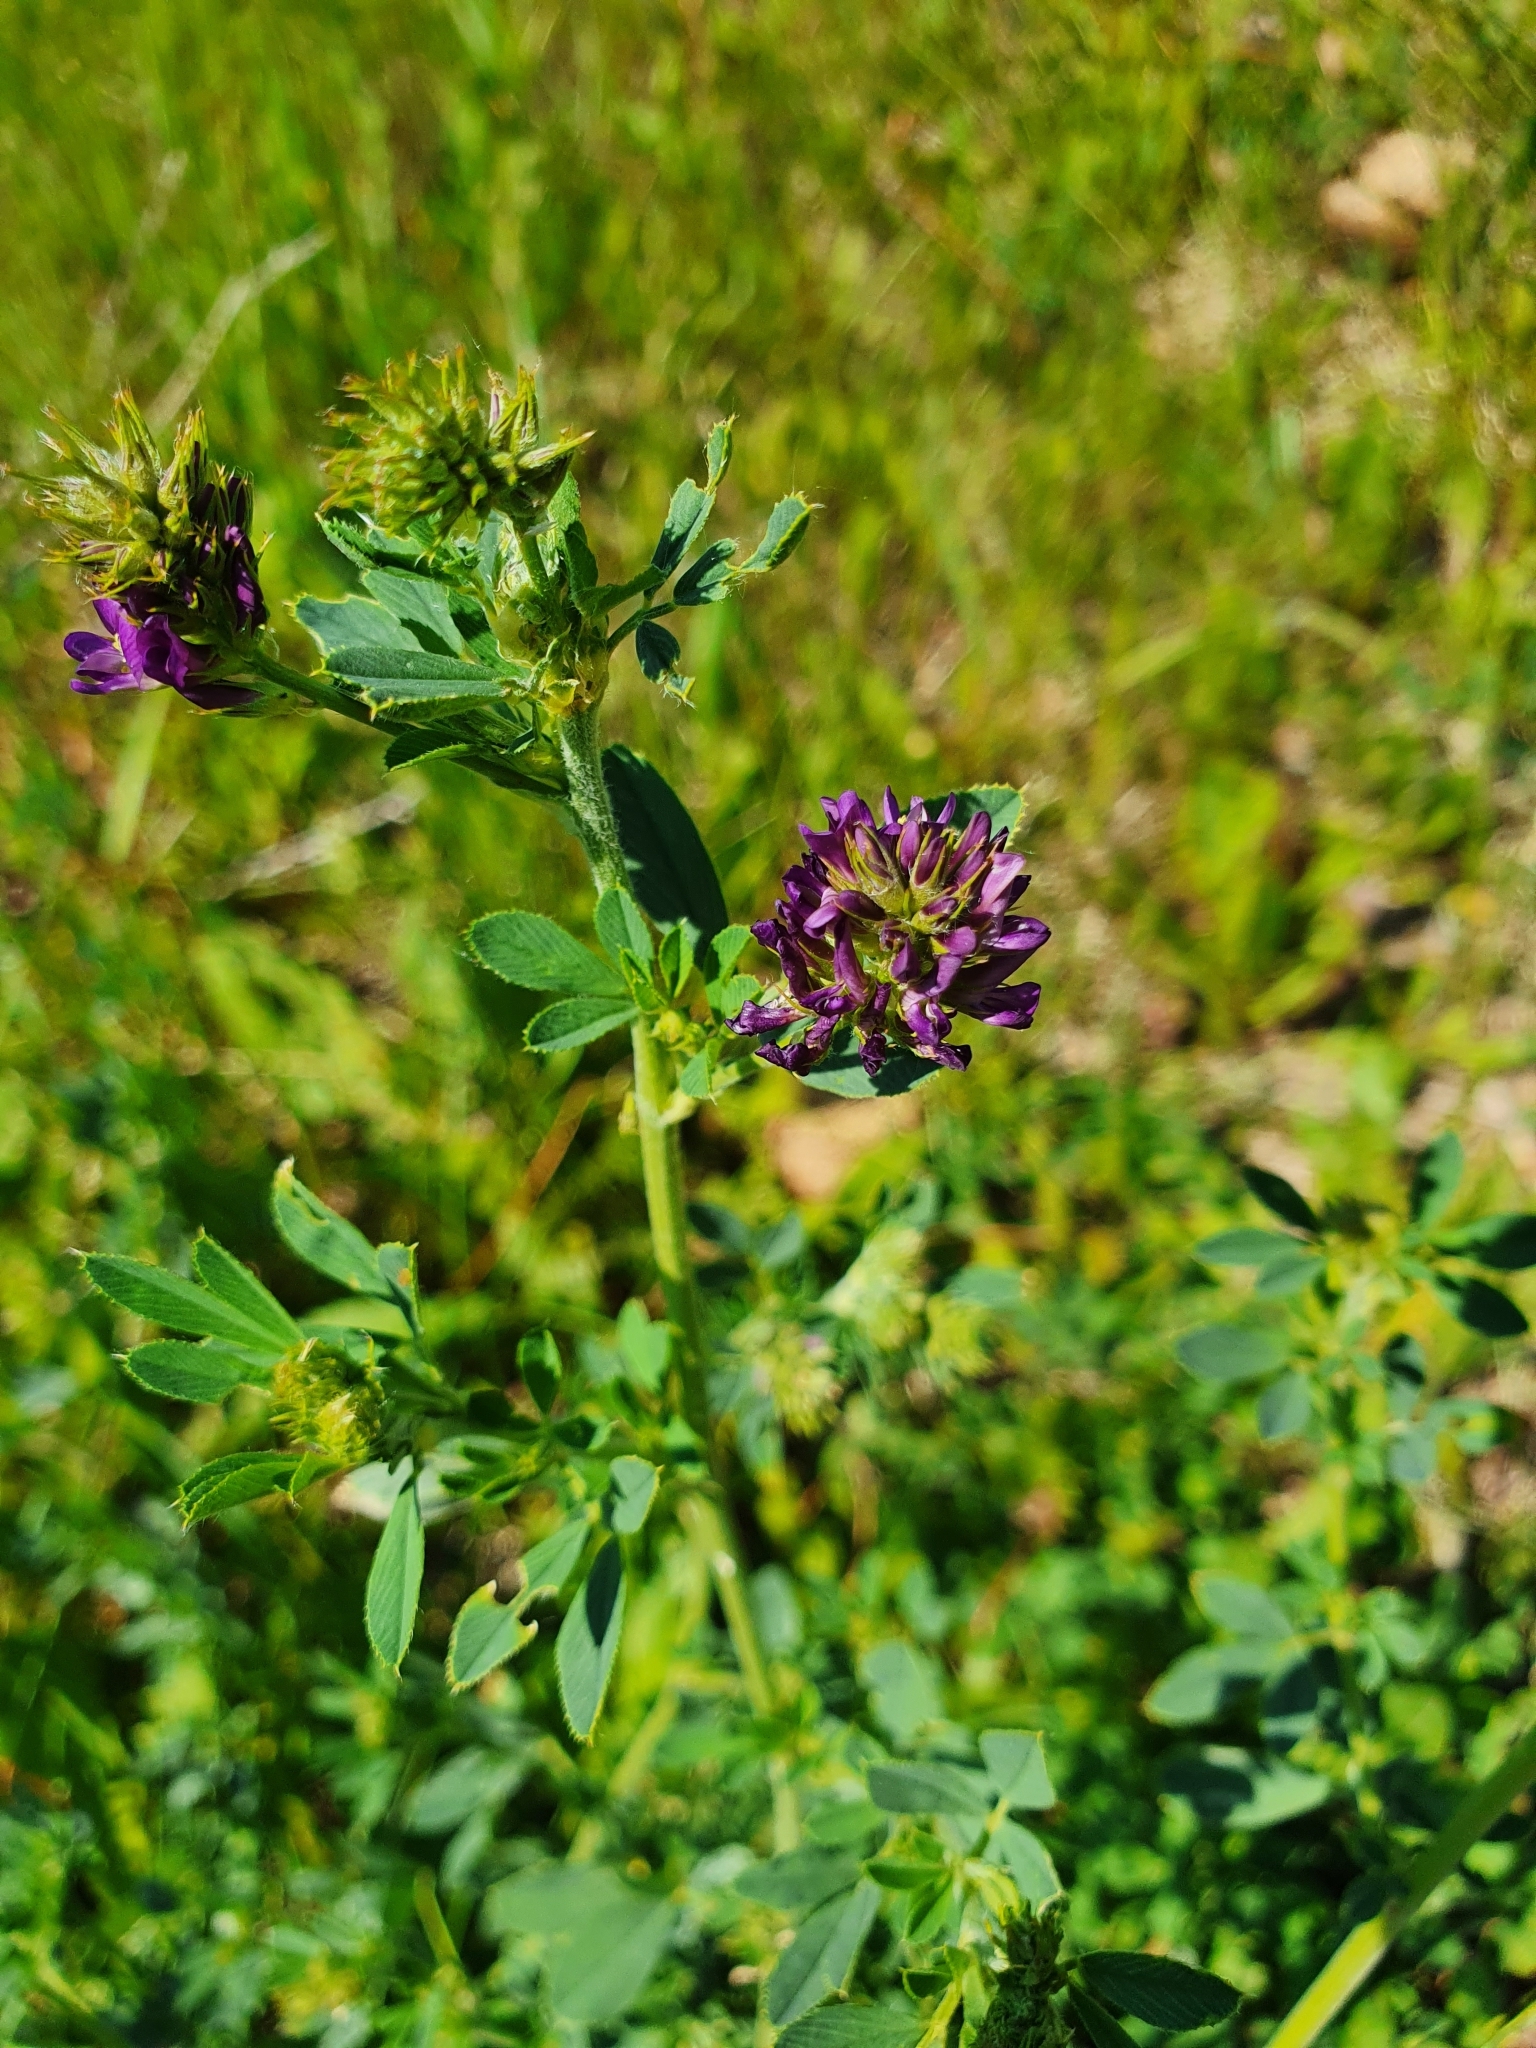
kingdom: Plantae
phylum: Tracheophyta
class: Magnoliopsida
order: Fabales
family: Fabaceae
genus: Medicago
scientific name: Medicago sativa
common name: Alfalfa
